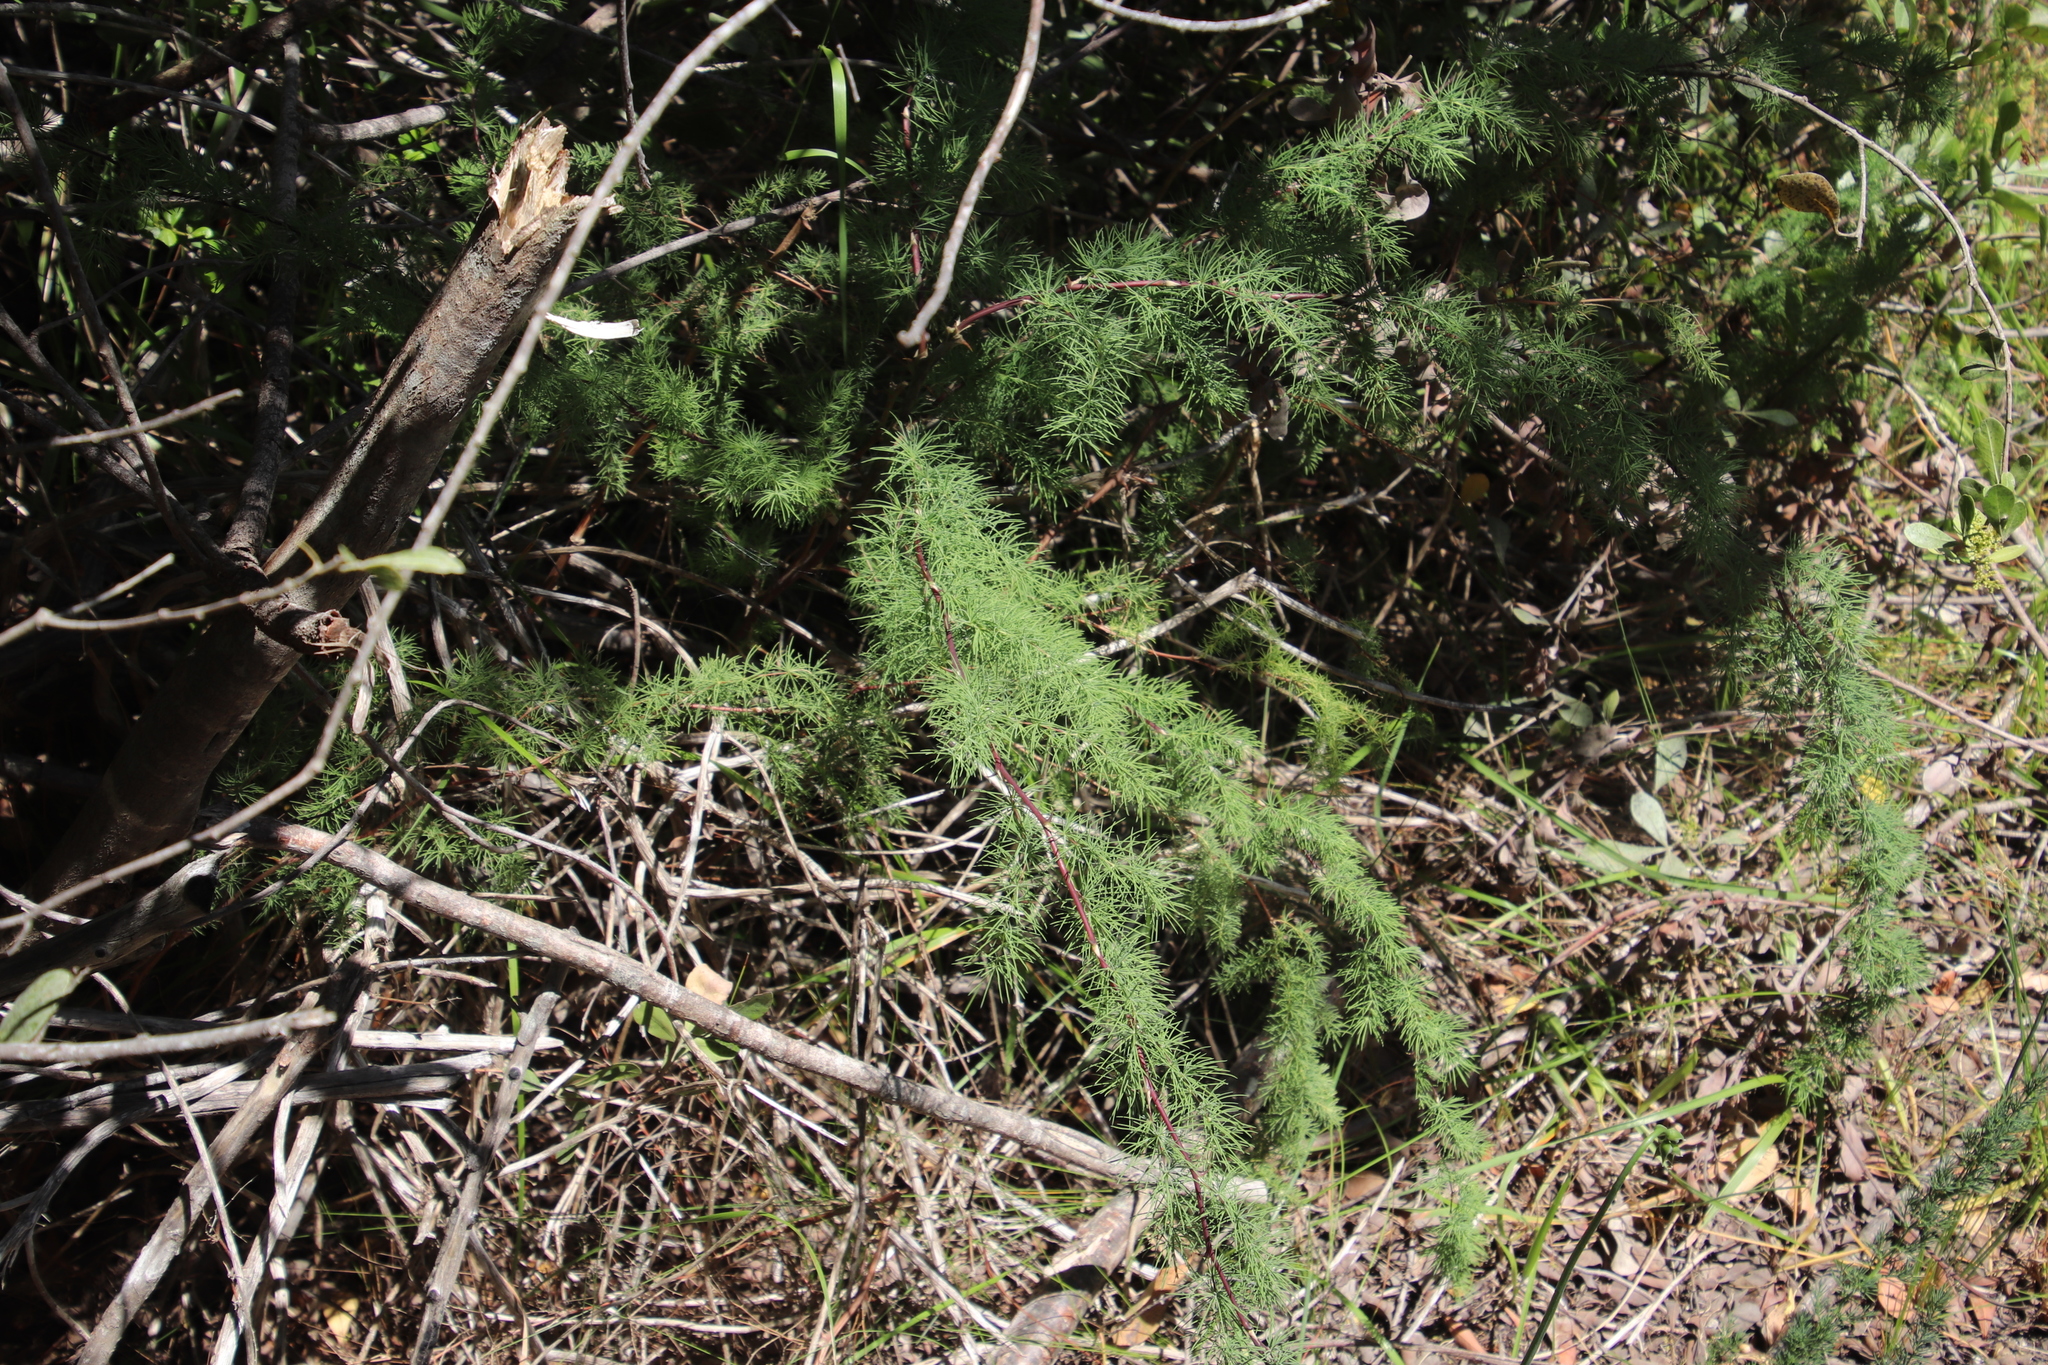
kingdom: Plantae
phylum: Tracheophyta
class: Liliopsida
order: Asparagales
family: Asparagaceae
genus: Asparagus
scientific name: Asparagus rubicundus
